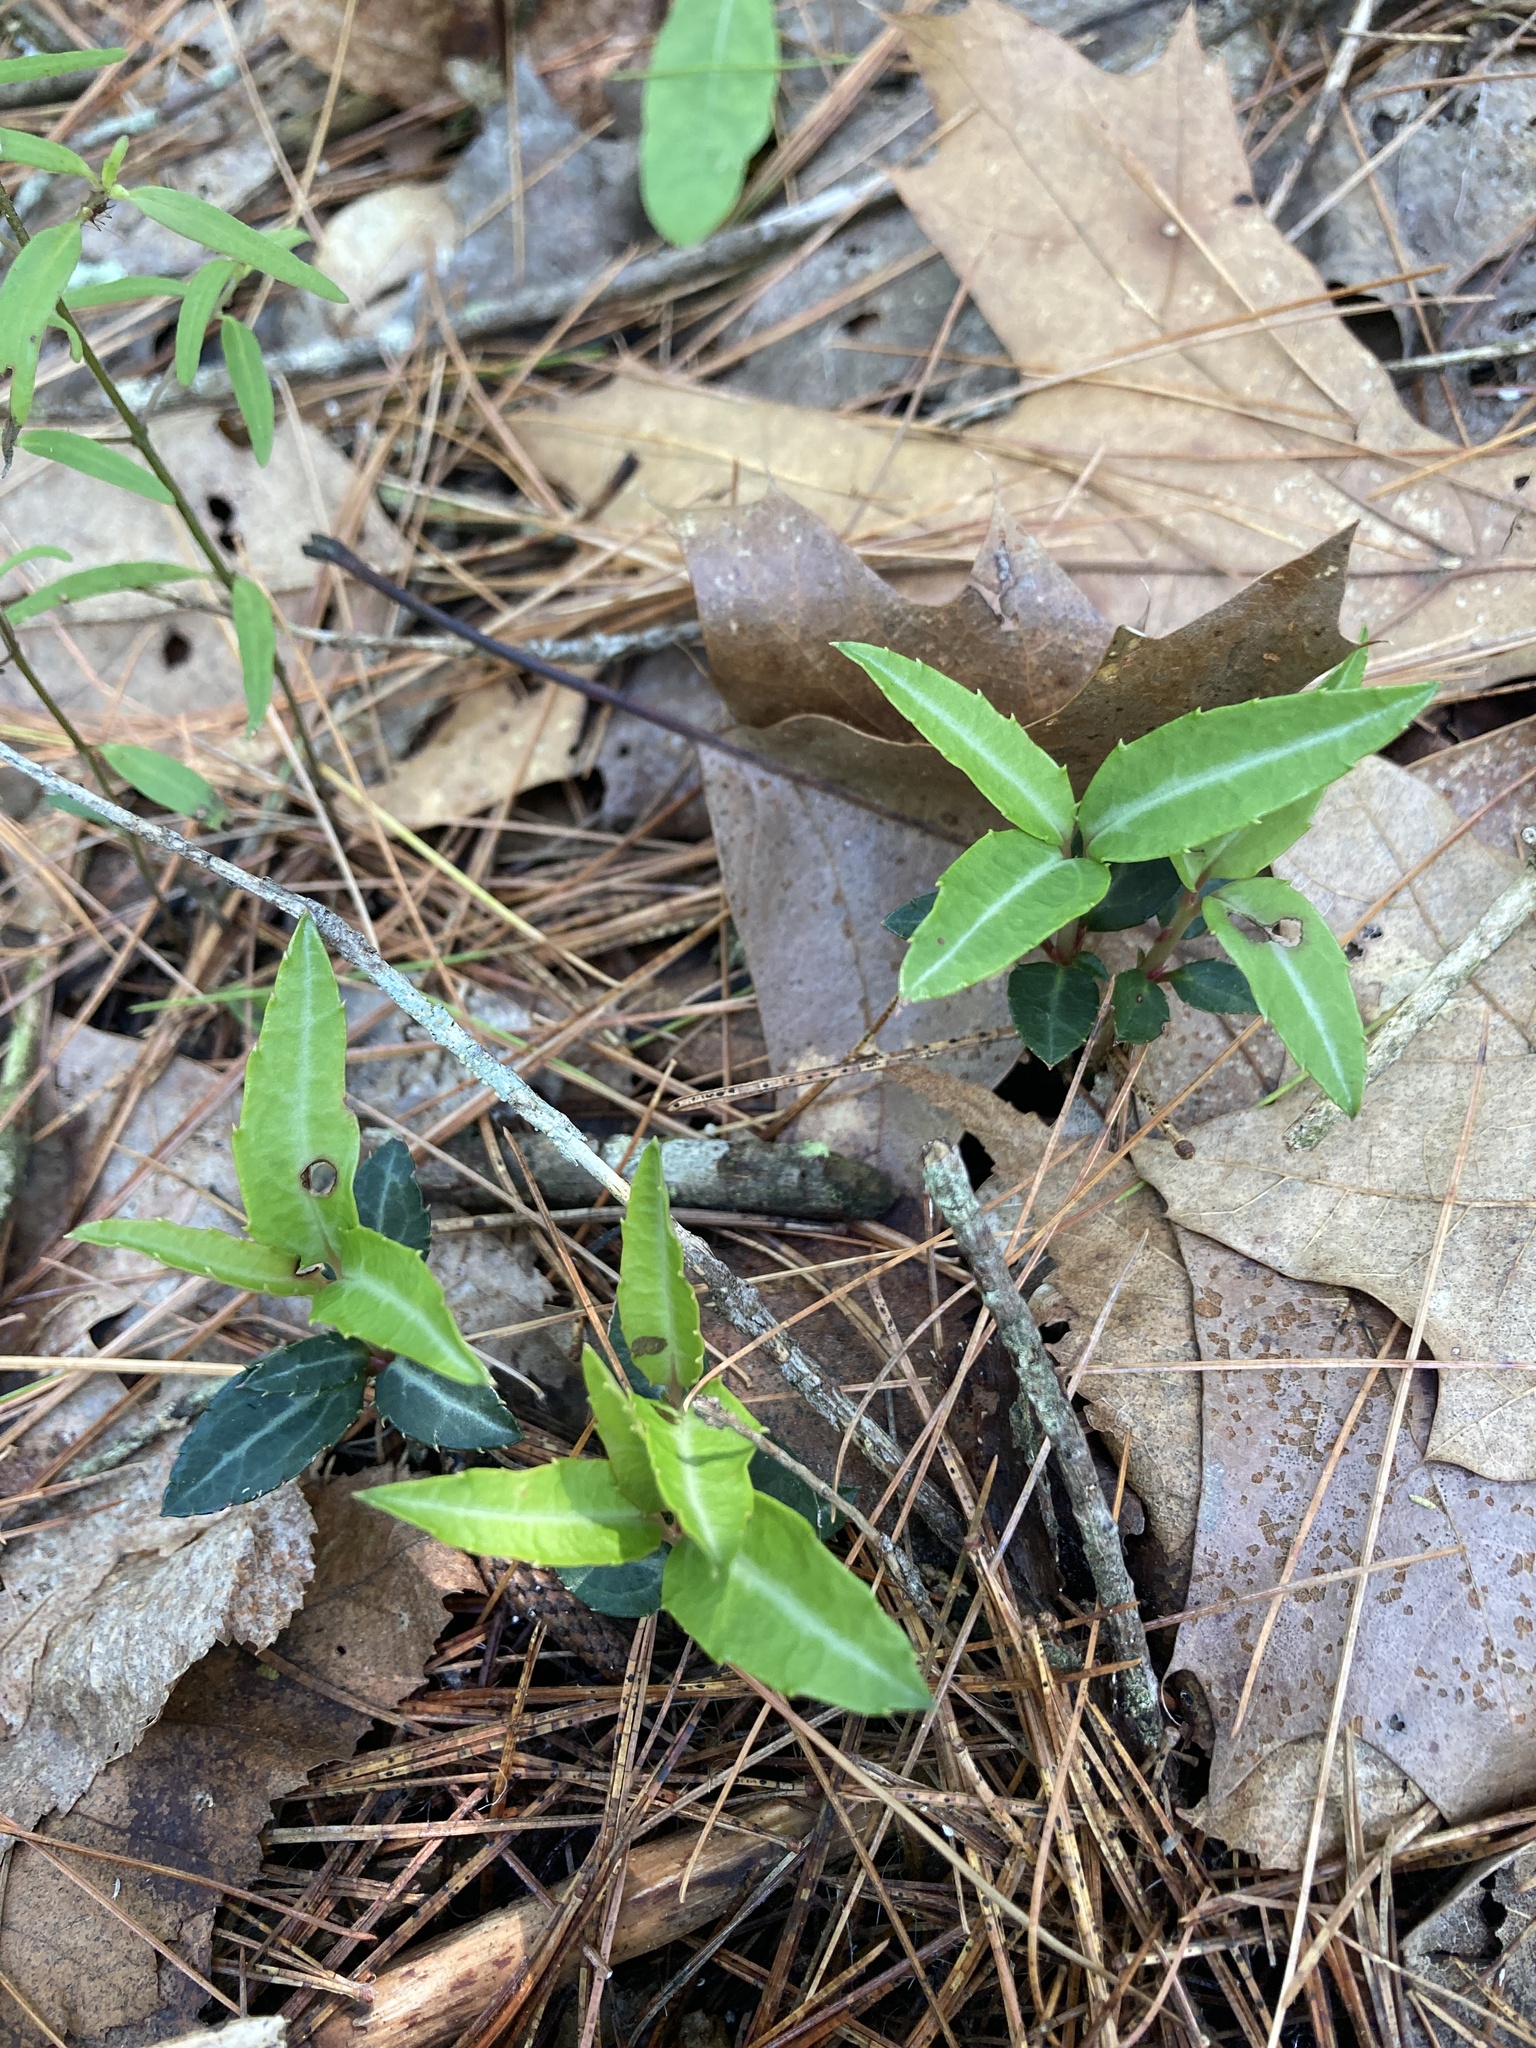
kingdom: Plantae
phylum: Tracheophyta
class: Magnoliopsida
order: Ericales
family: Ericaceae
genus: Chimaphila
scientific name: Chimaphila maculata
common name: Spotted pipsissewa
